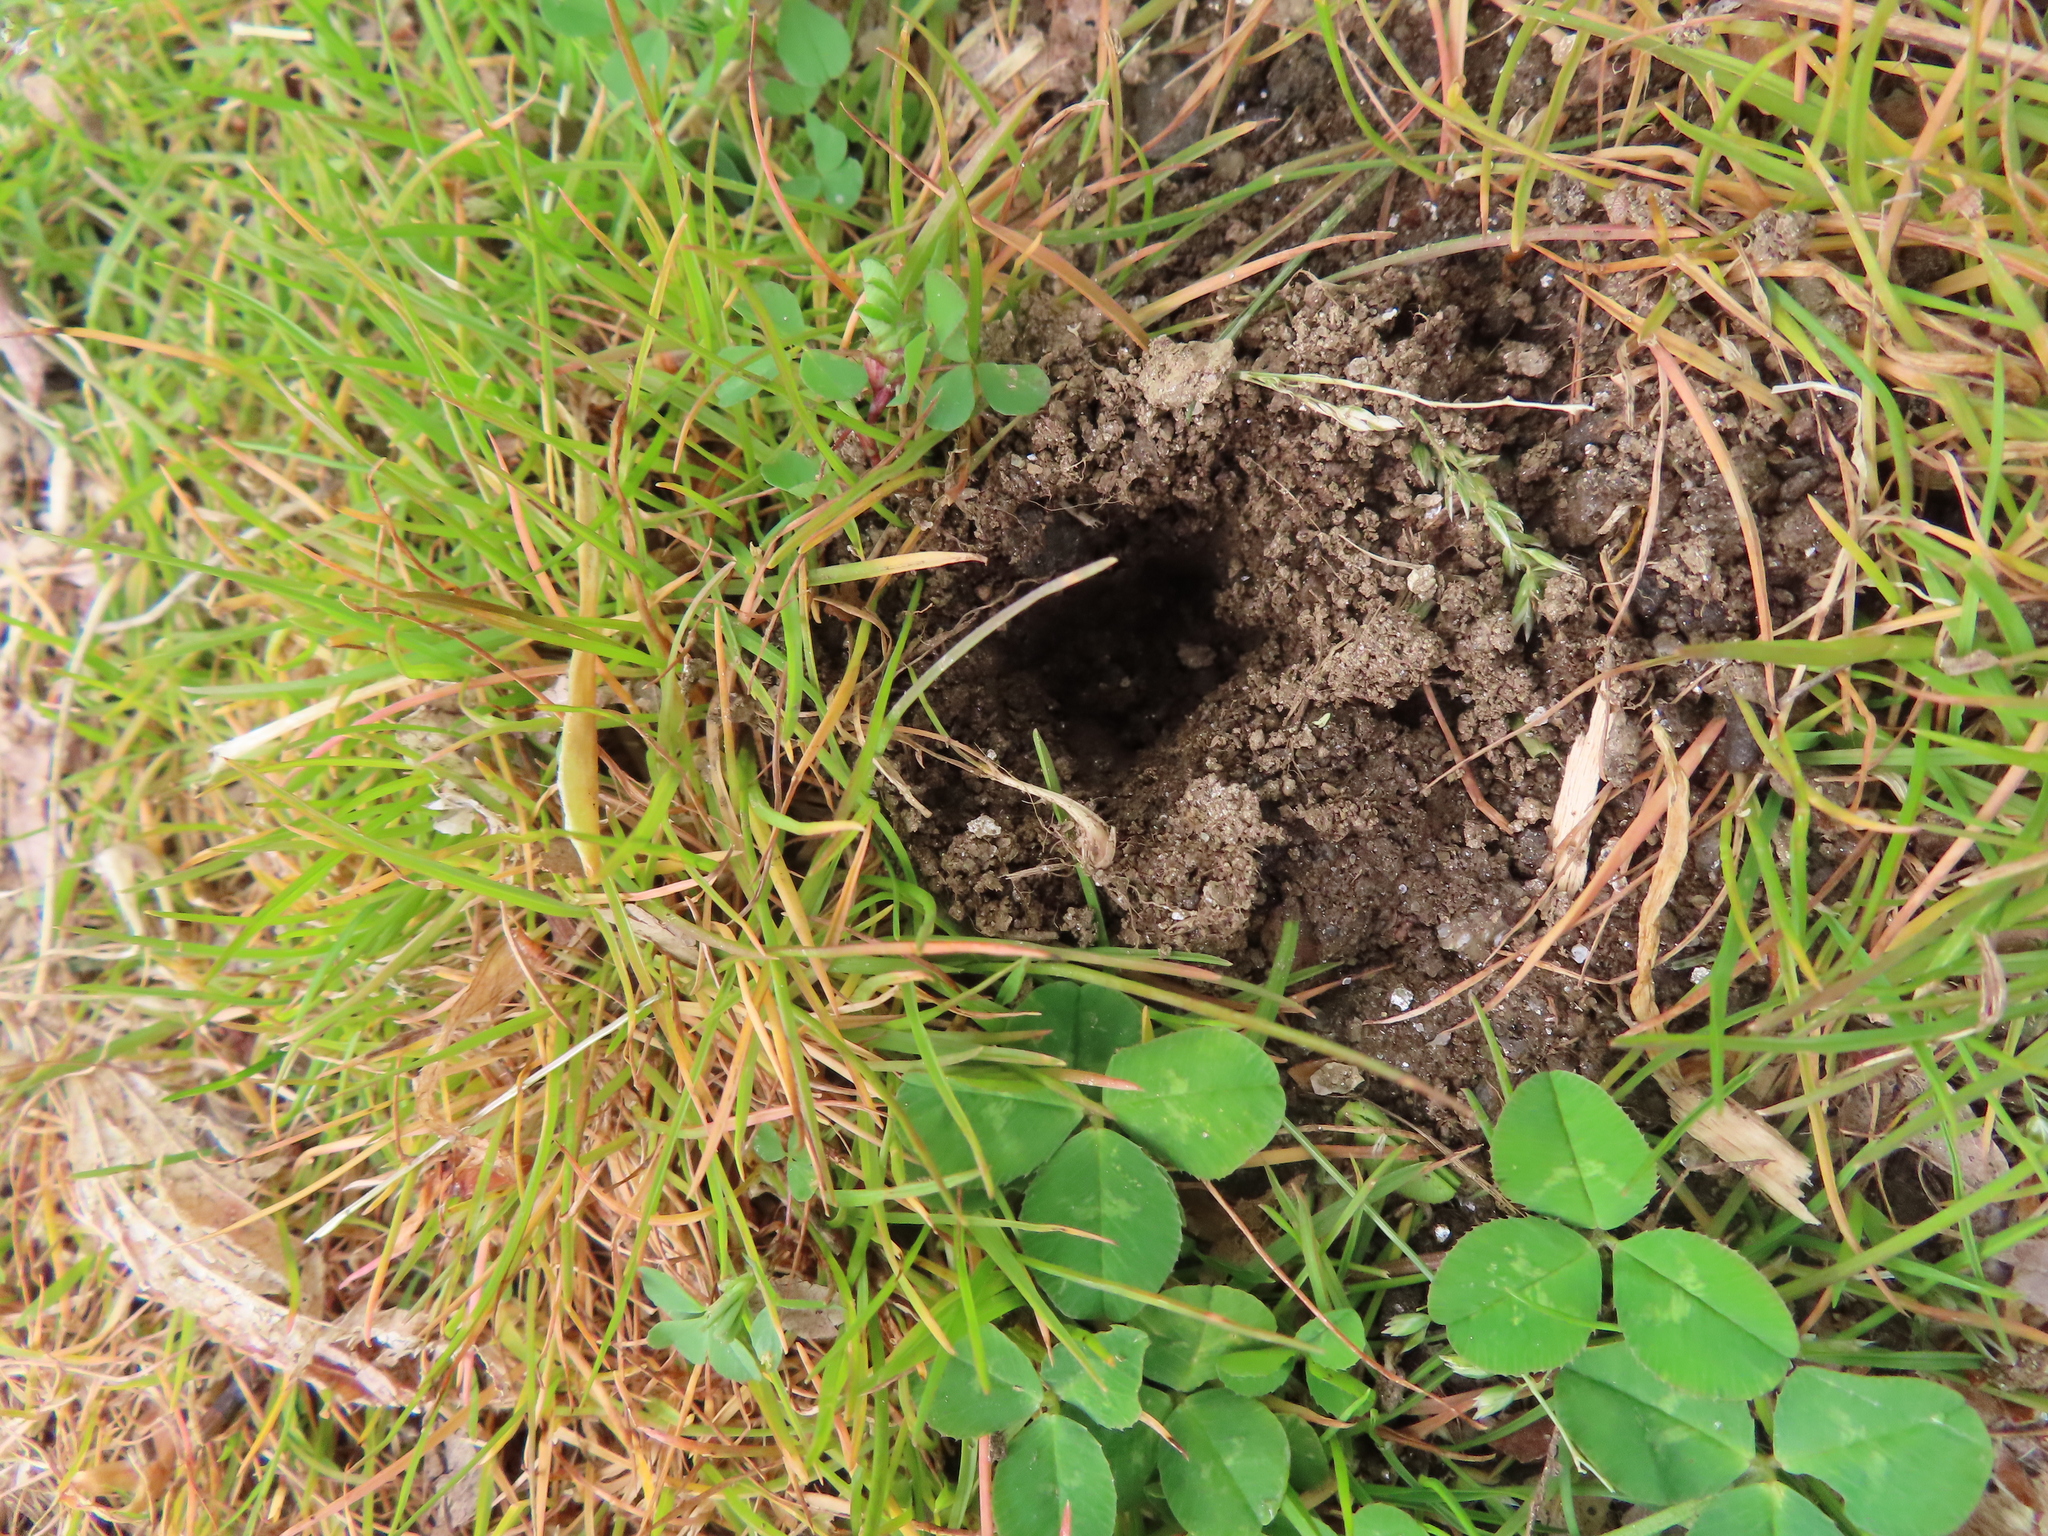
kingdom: Animalia
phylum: Chordata
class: Aves
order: Passeriformes
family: Turdidae
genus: Turdus
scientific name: Turdus migratorius
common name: American robin
